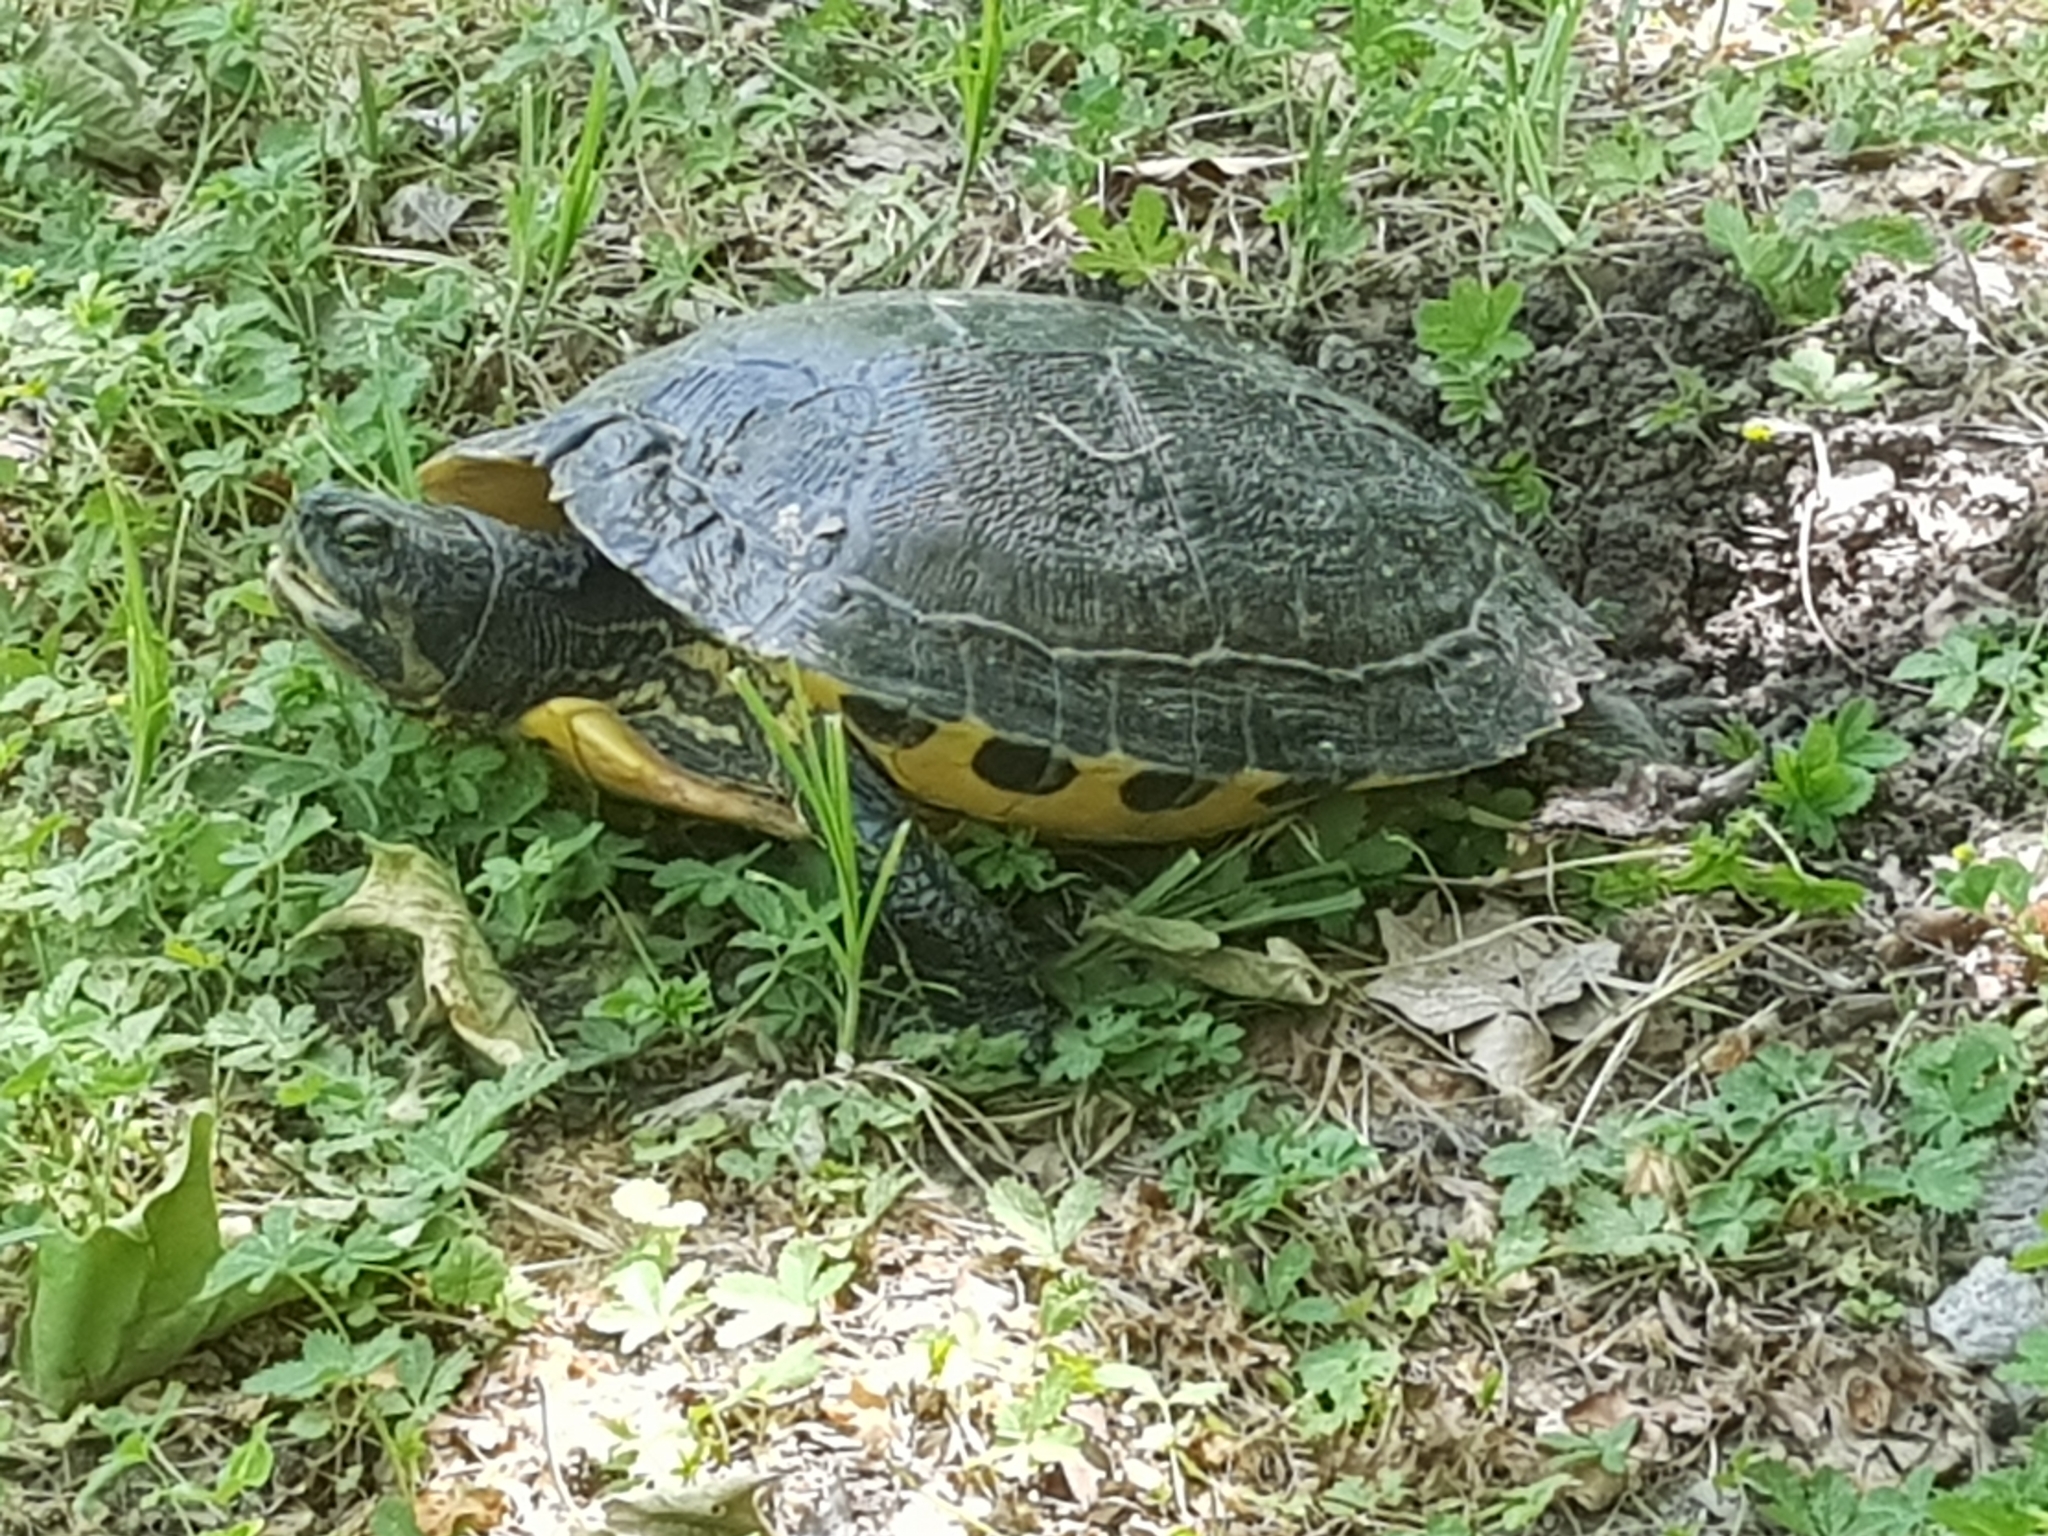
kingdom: Animalia
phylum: Chordata
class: Testudines
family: Emydidae
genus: Trachemys
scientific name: Trachemys scripta
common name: Slider
